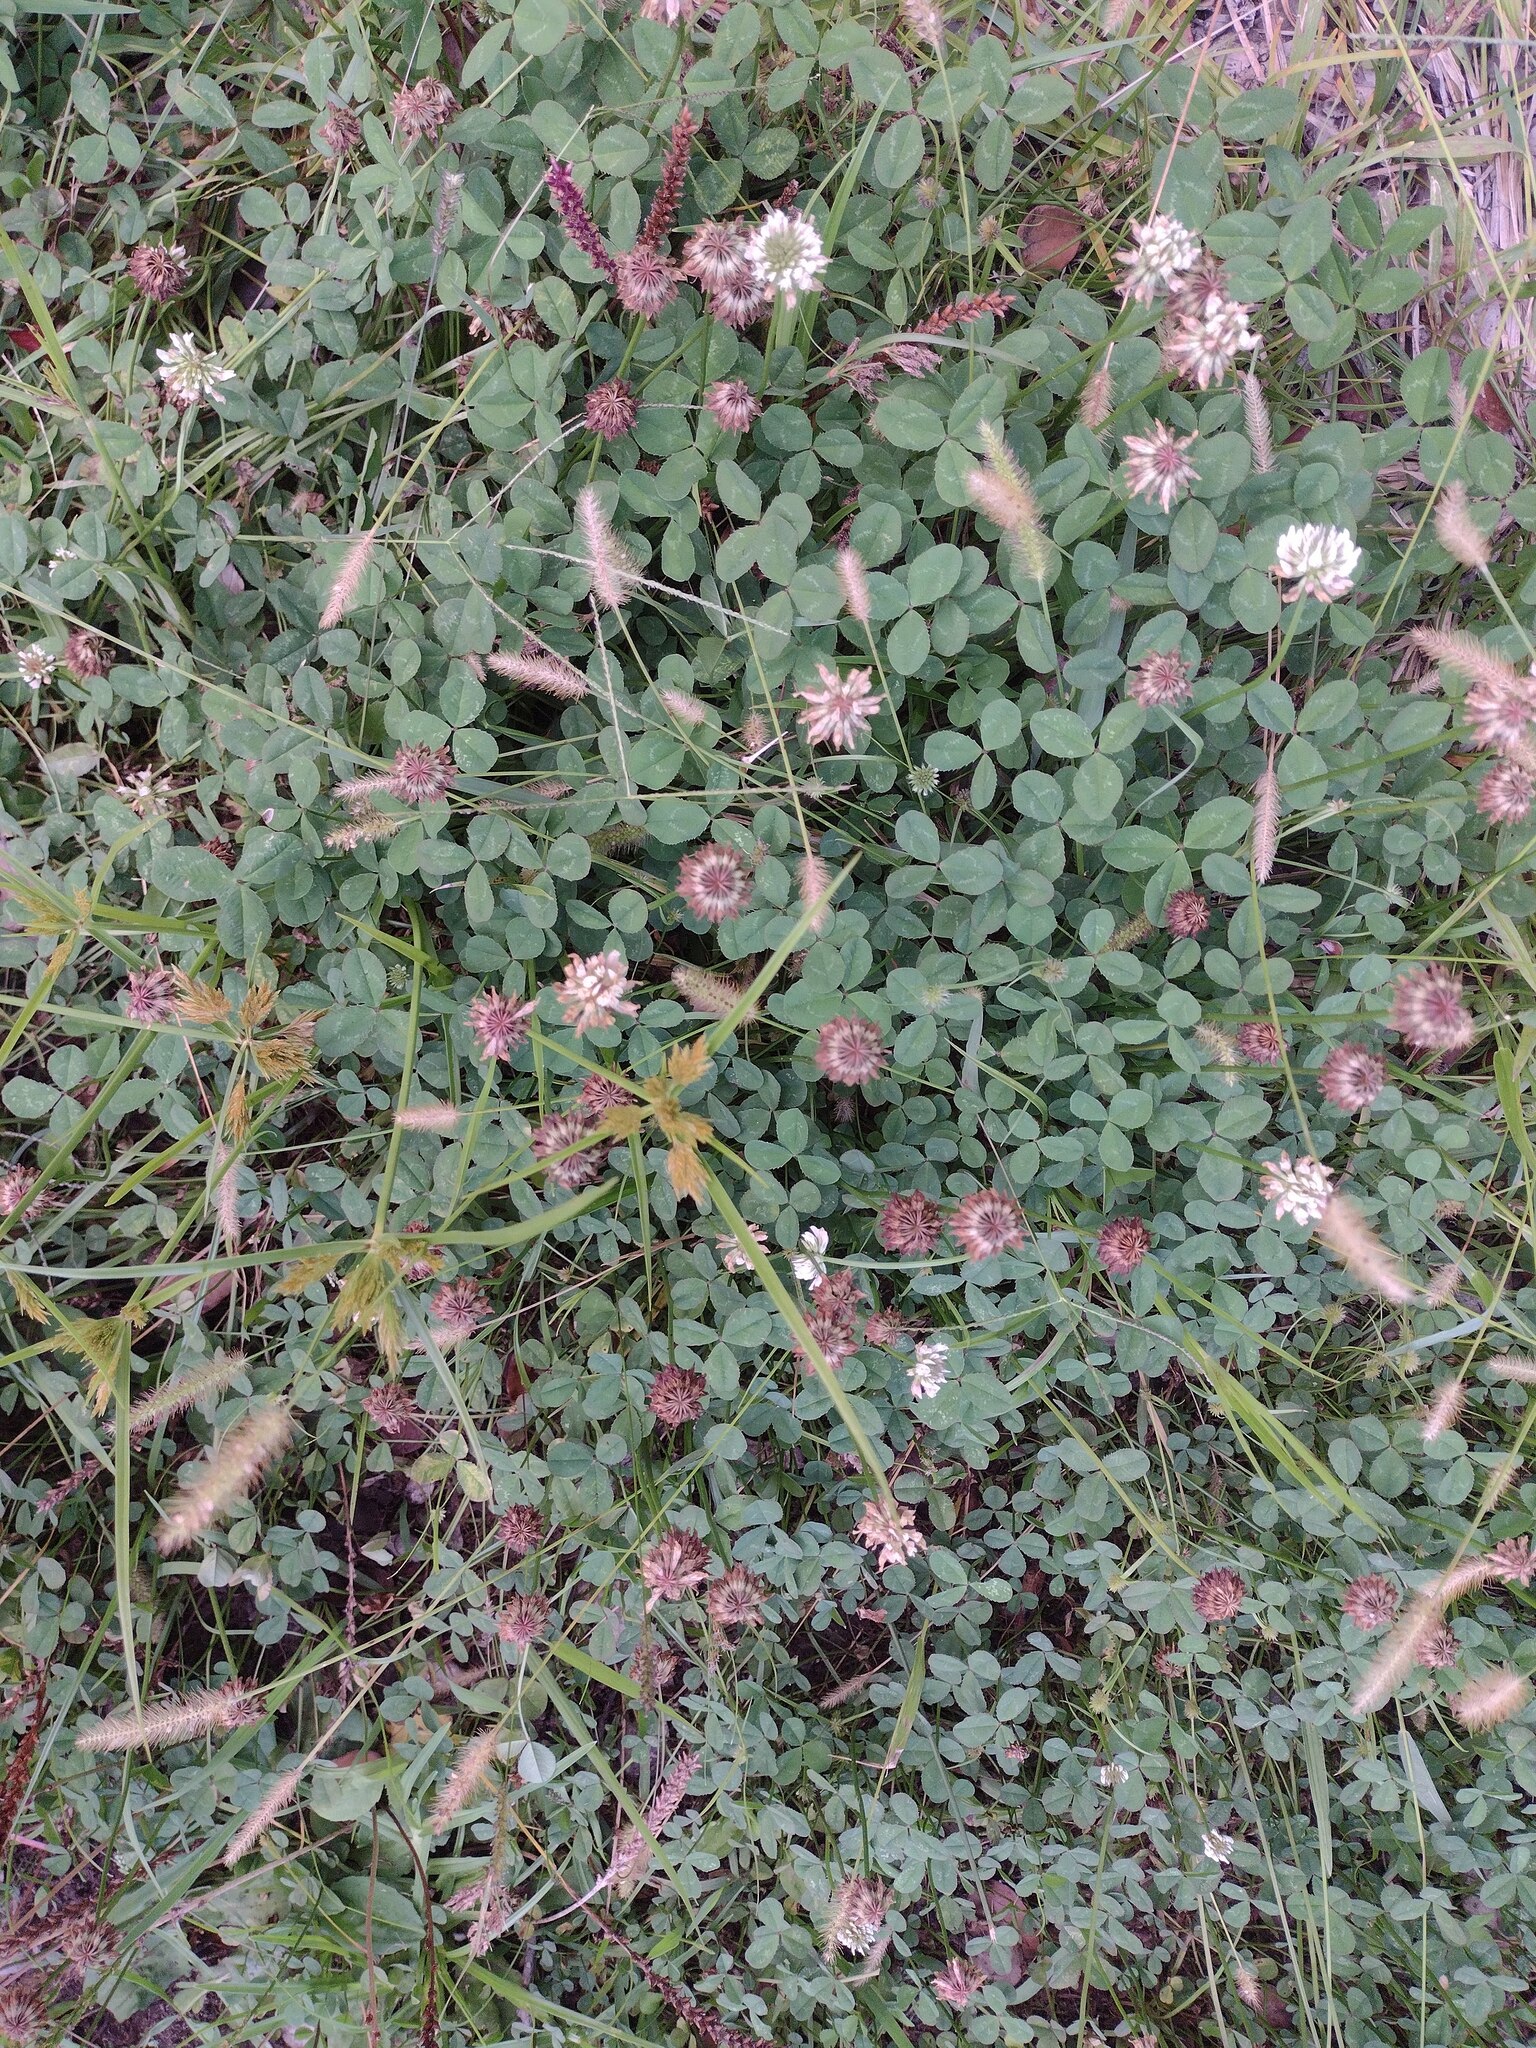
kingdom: Plantae
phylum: Tracheophyta
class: Magnoliopsida
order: Fabales
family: Fabaceae
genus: Trifolium
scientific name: Trifolium repens
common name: White clover
